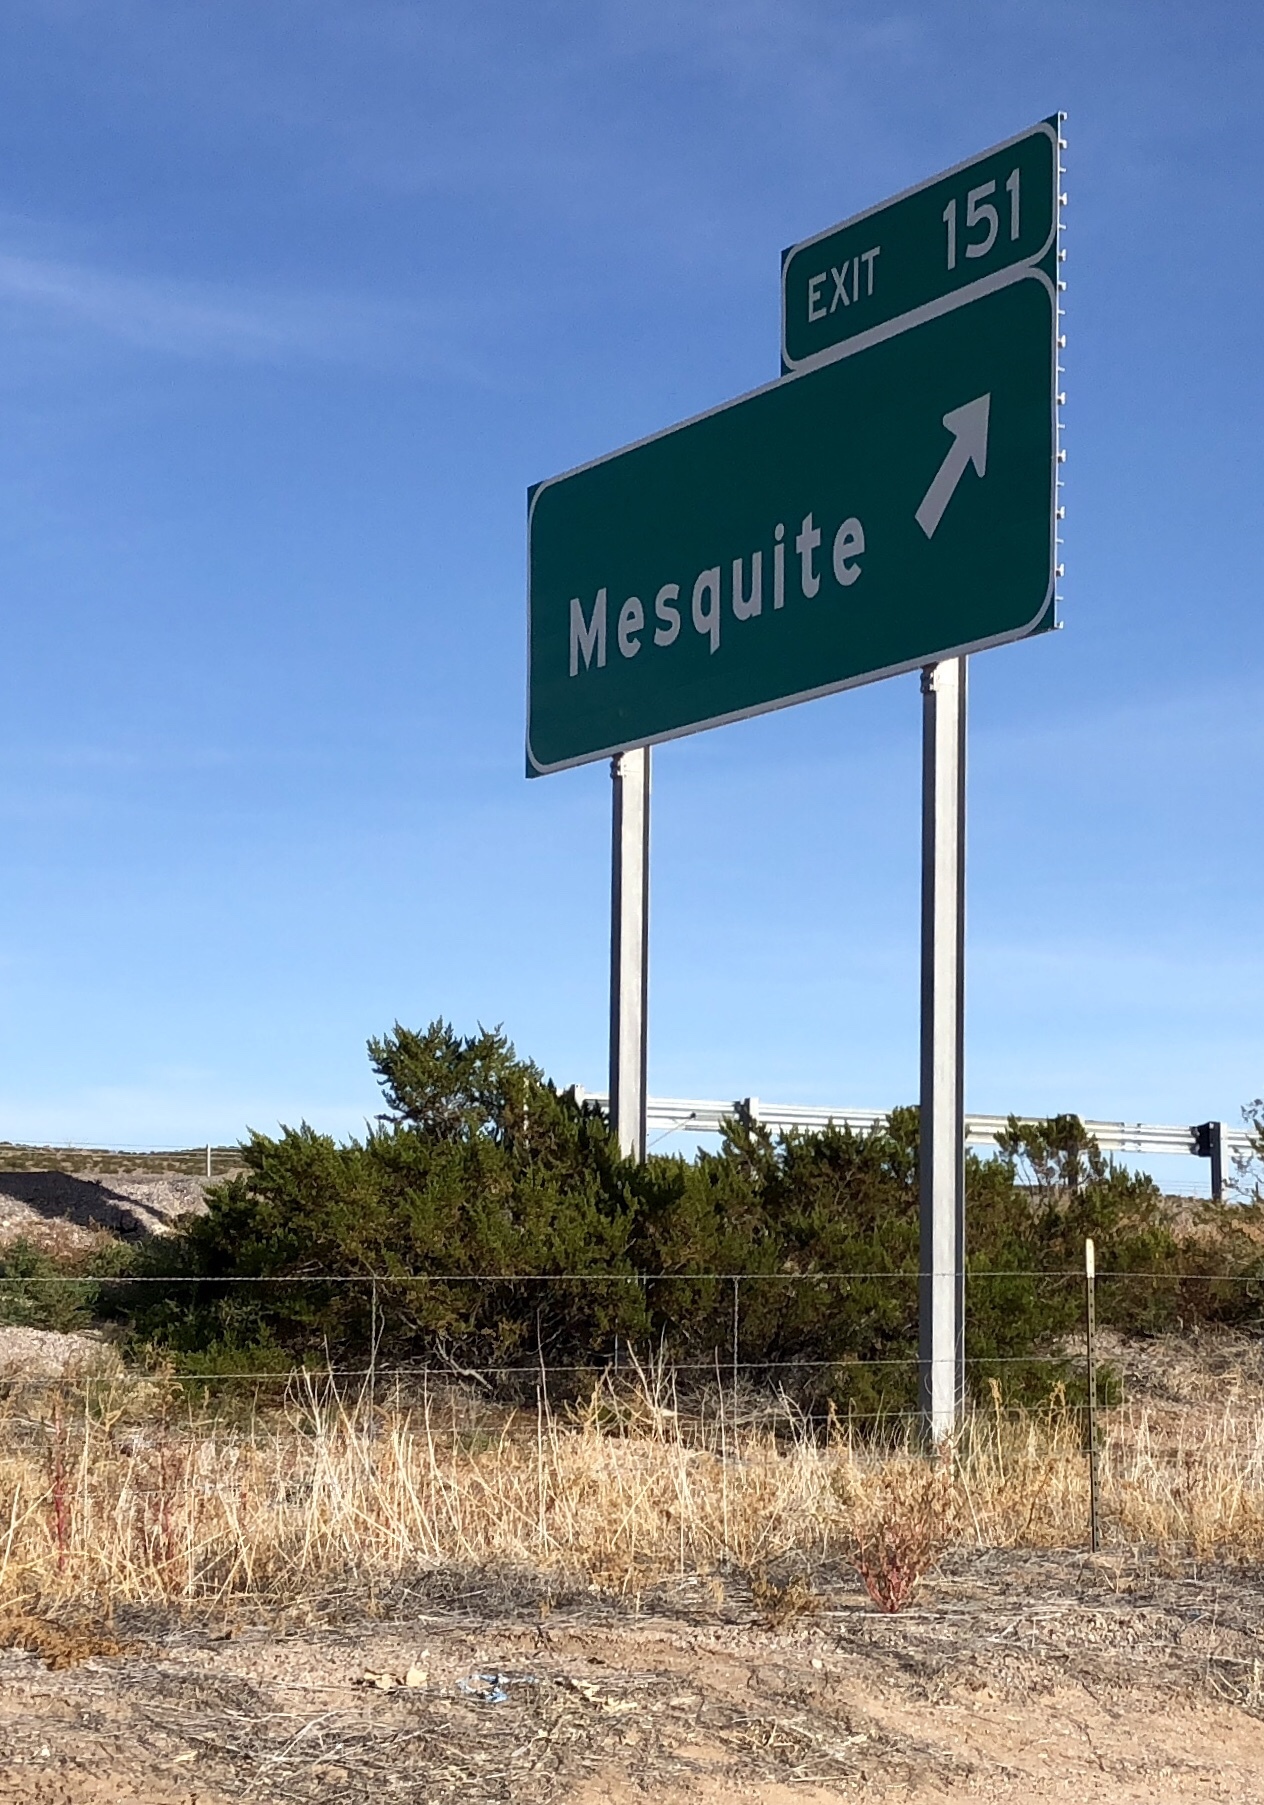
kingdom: Plantae
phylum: Tracheophyta
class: Magnoliopsida
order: Zygophyllales
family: Zygophyllaceae
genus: Larrea
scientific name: Larrea tridentata
